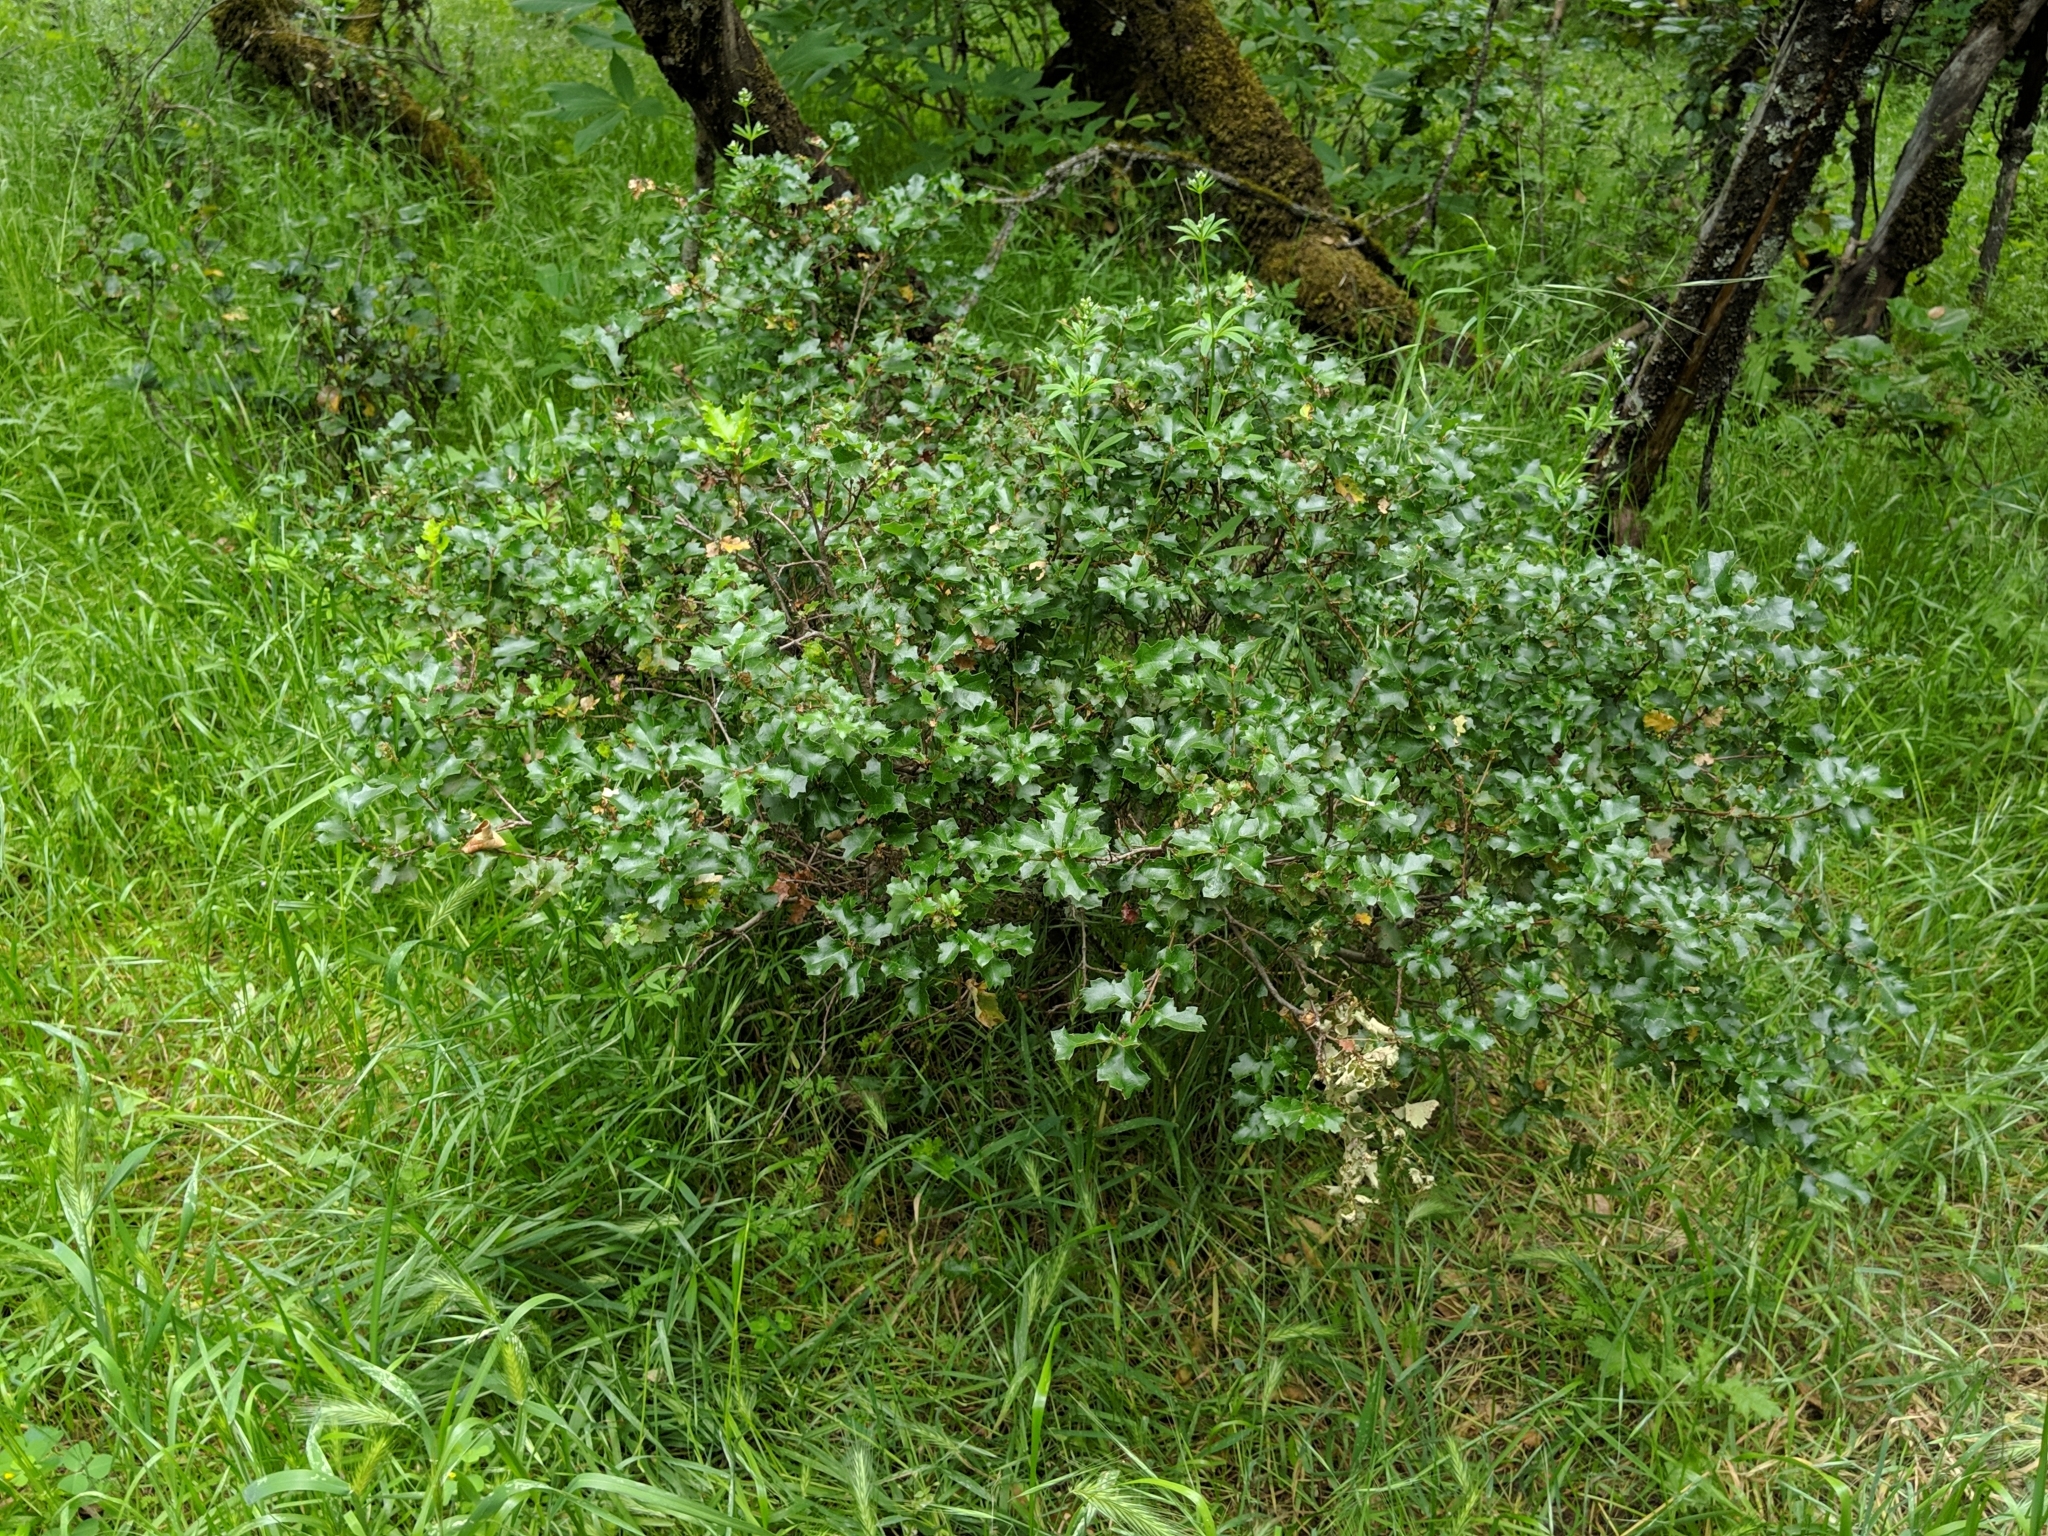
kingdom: Plantae
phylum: Tracheophyta
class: Magnoliopsida
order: Fagales
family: Fagaceae
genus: Quercus
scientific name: Quercus berberidifolia
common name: California scrub oak
